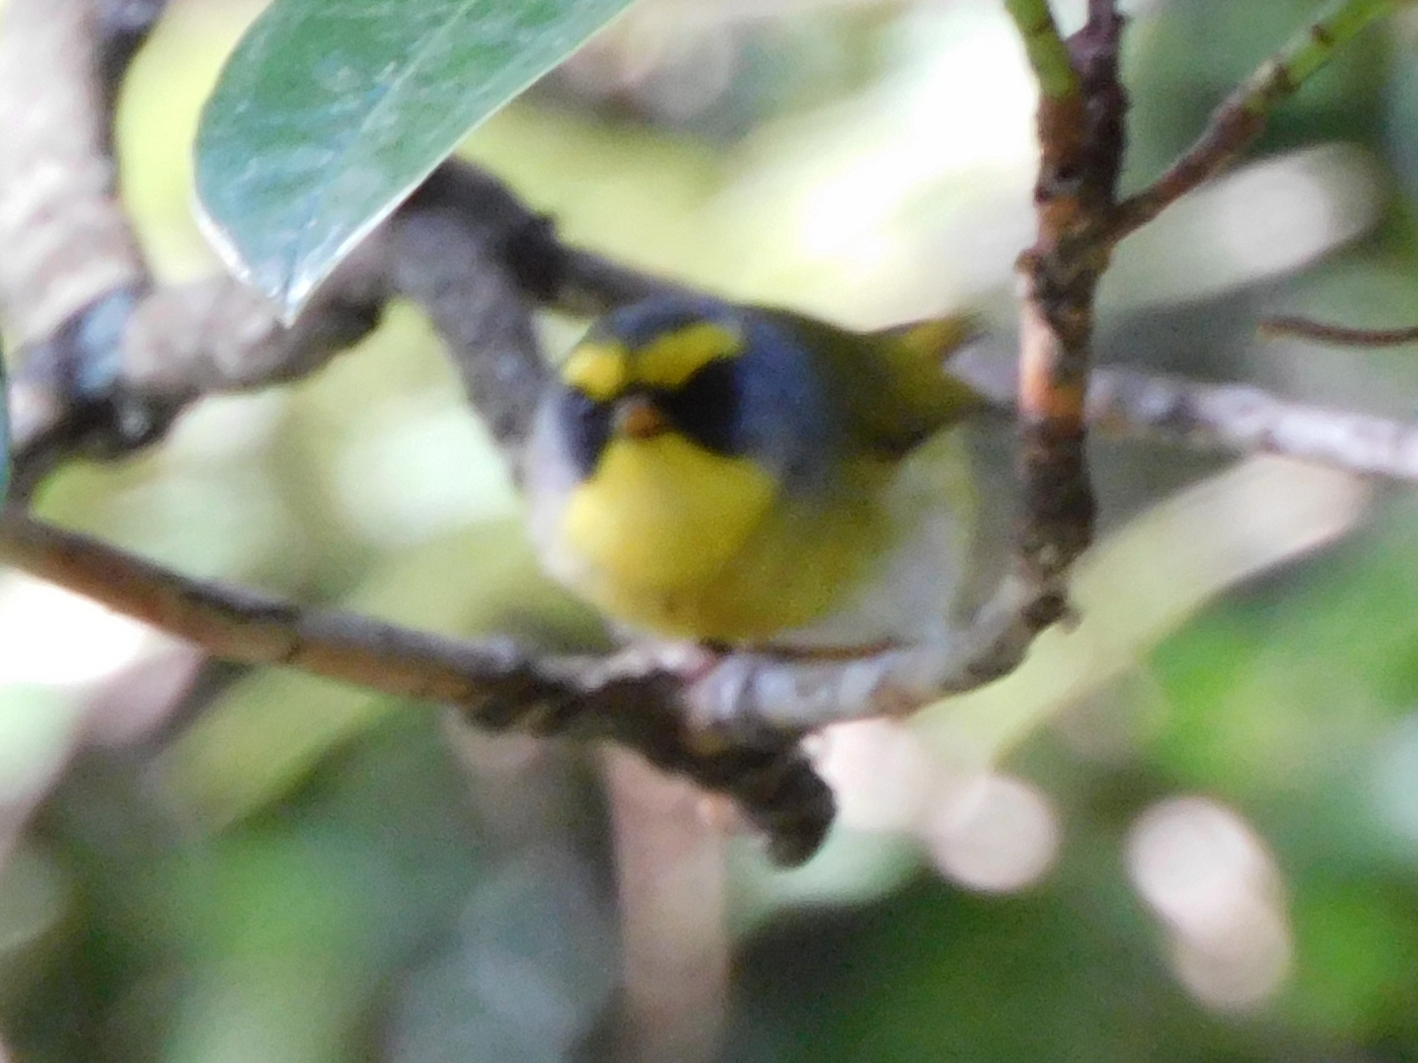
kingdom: Animalia
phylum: Chordata
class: Aves
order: Passeriformes
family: Cettiidae
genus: Abroscopus
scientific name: Abroscopus schisticeps
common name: Black-faced warbler
